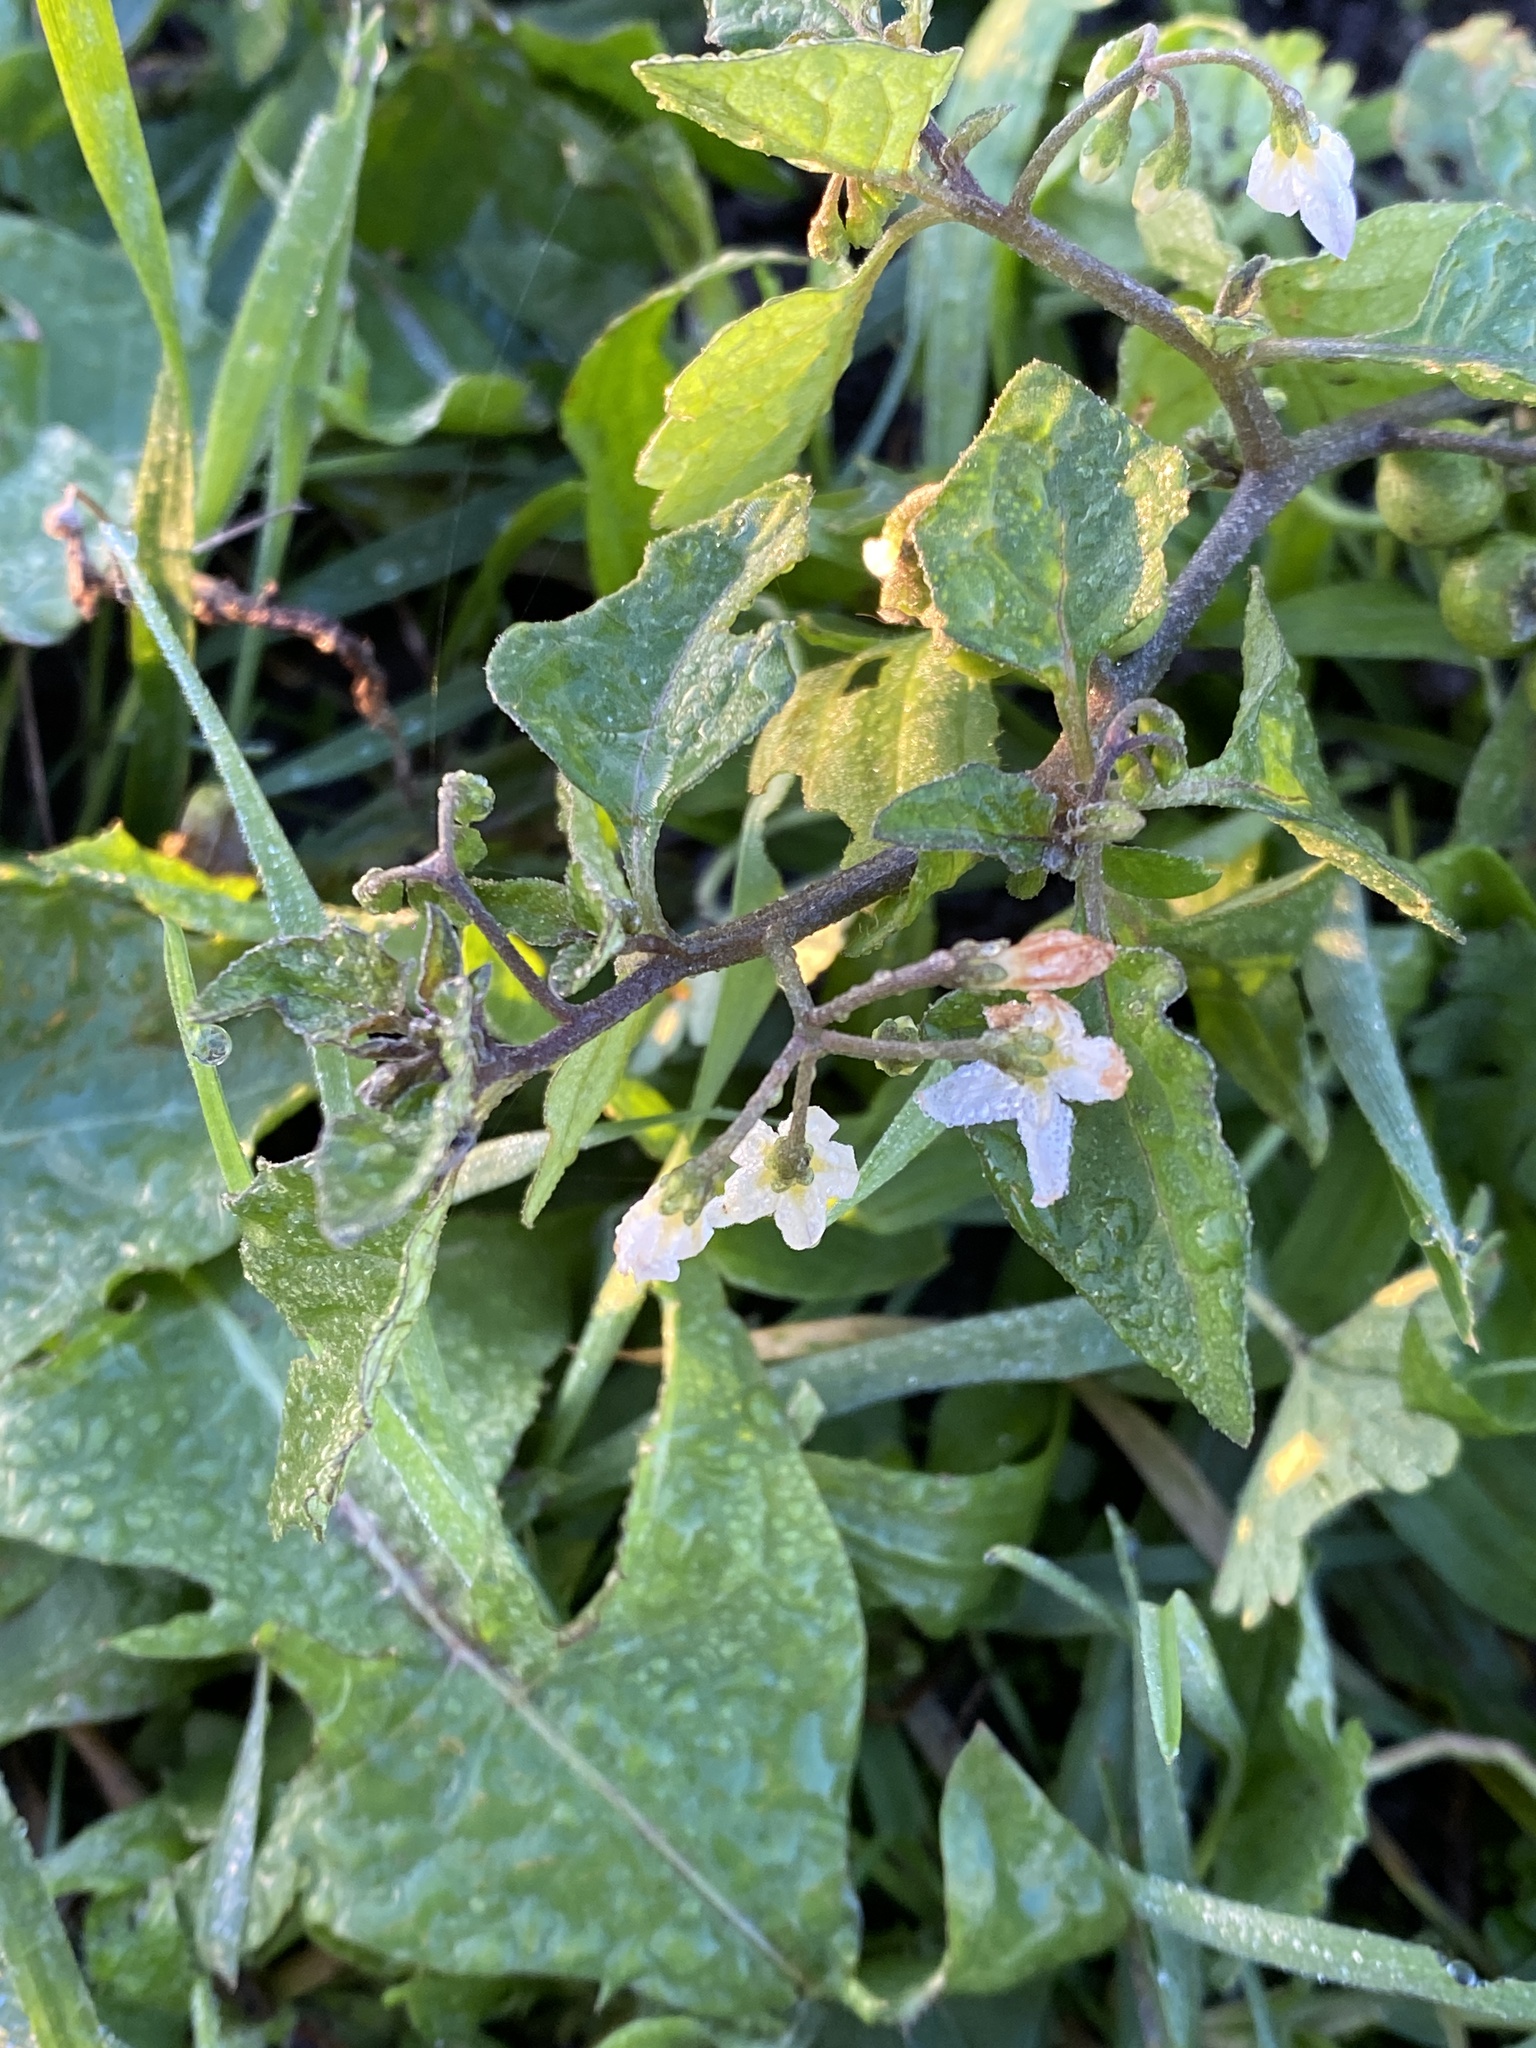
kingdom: Plantae
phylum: Tracheophyta
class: Magnoliopsida
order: Solanales
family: Solanaceae
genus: Solanum
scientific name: Solanum nigrum
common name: Black nightshade
